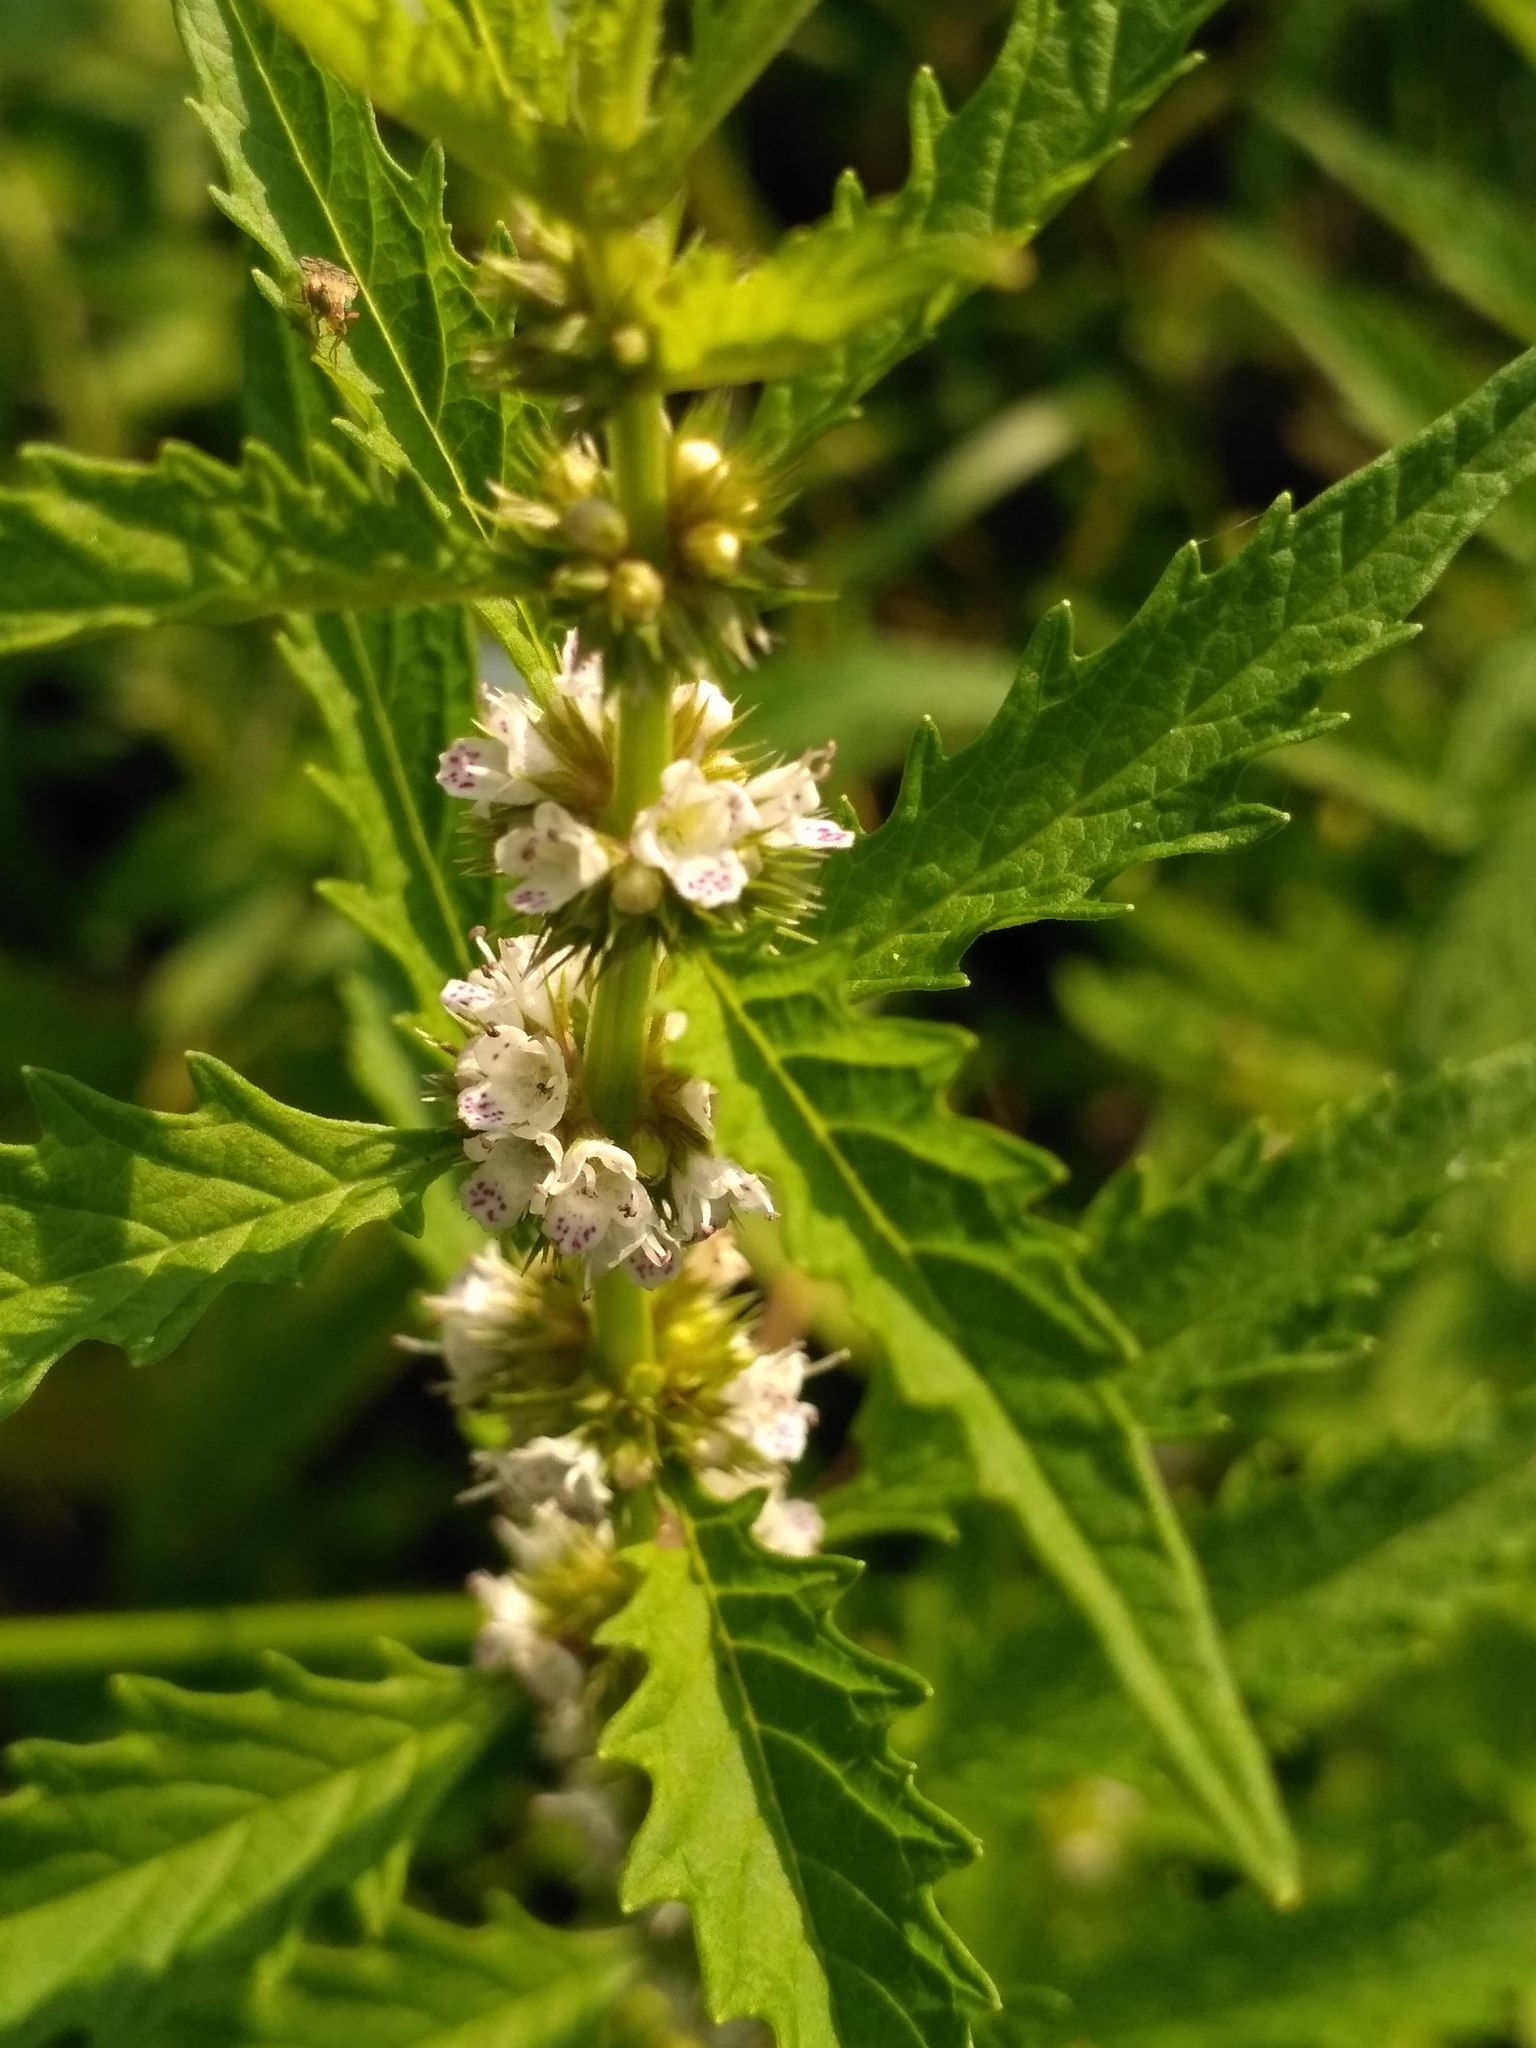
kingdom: Plantae
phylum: Tracheophyta
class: Magnoliopsida
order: Lamiales
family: Lamiaceae
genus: Lycopus
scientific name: Lycopus europaeus
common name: European bugleweed
